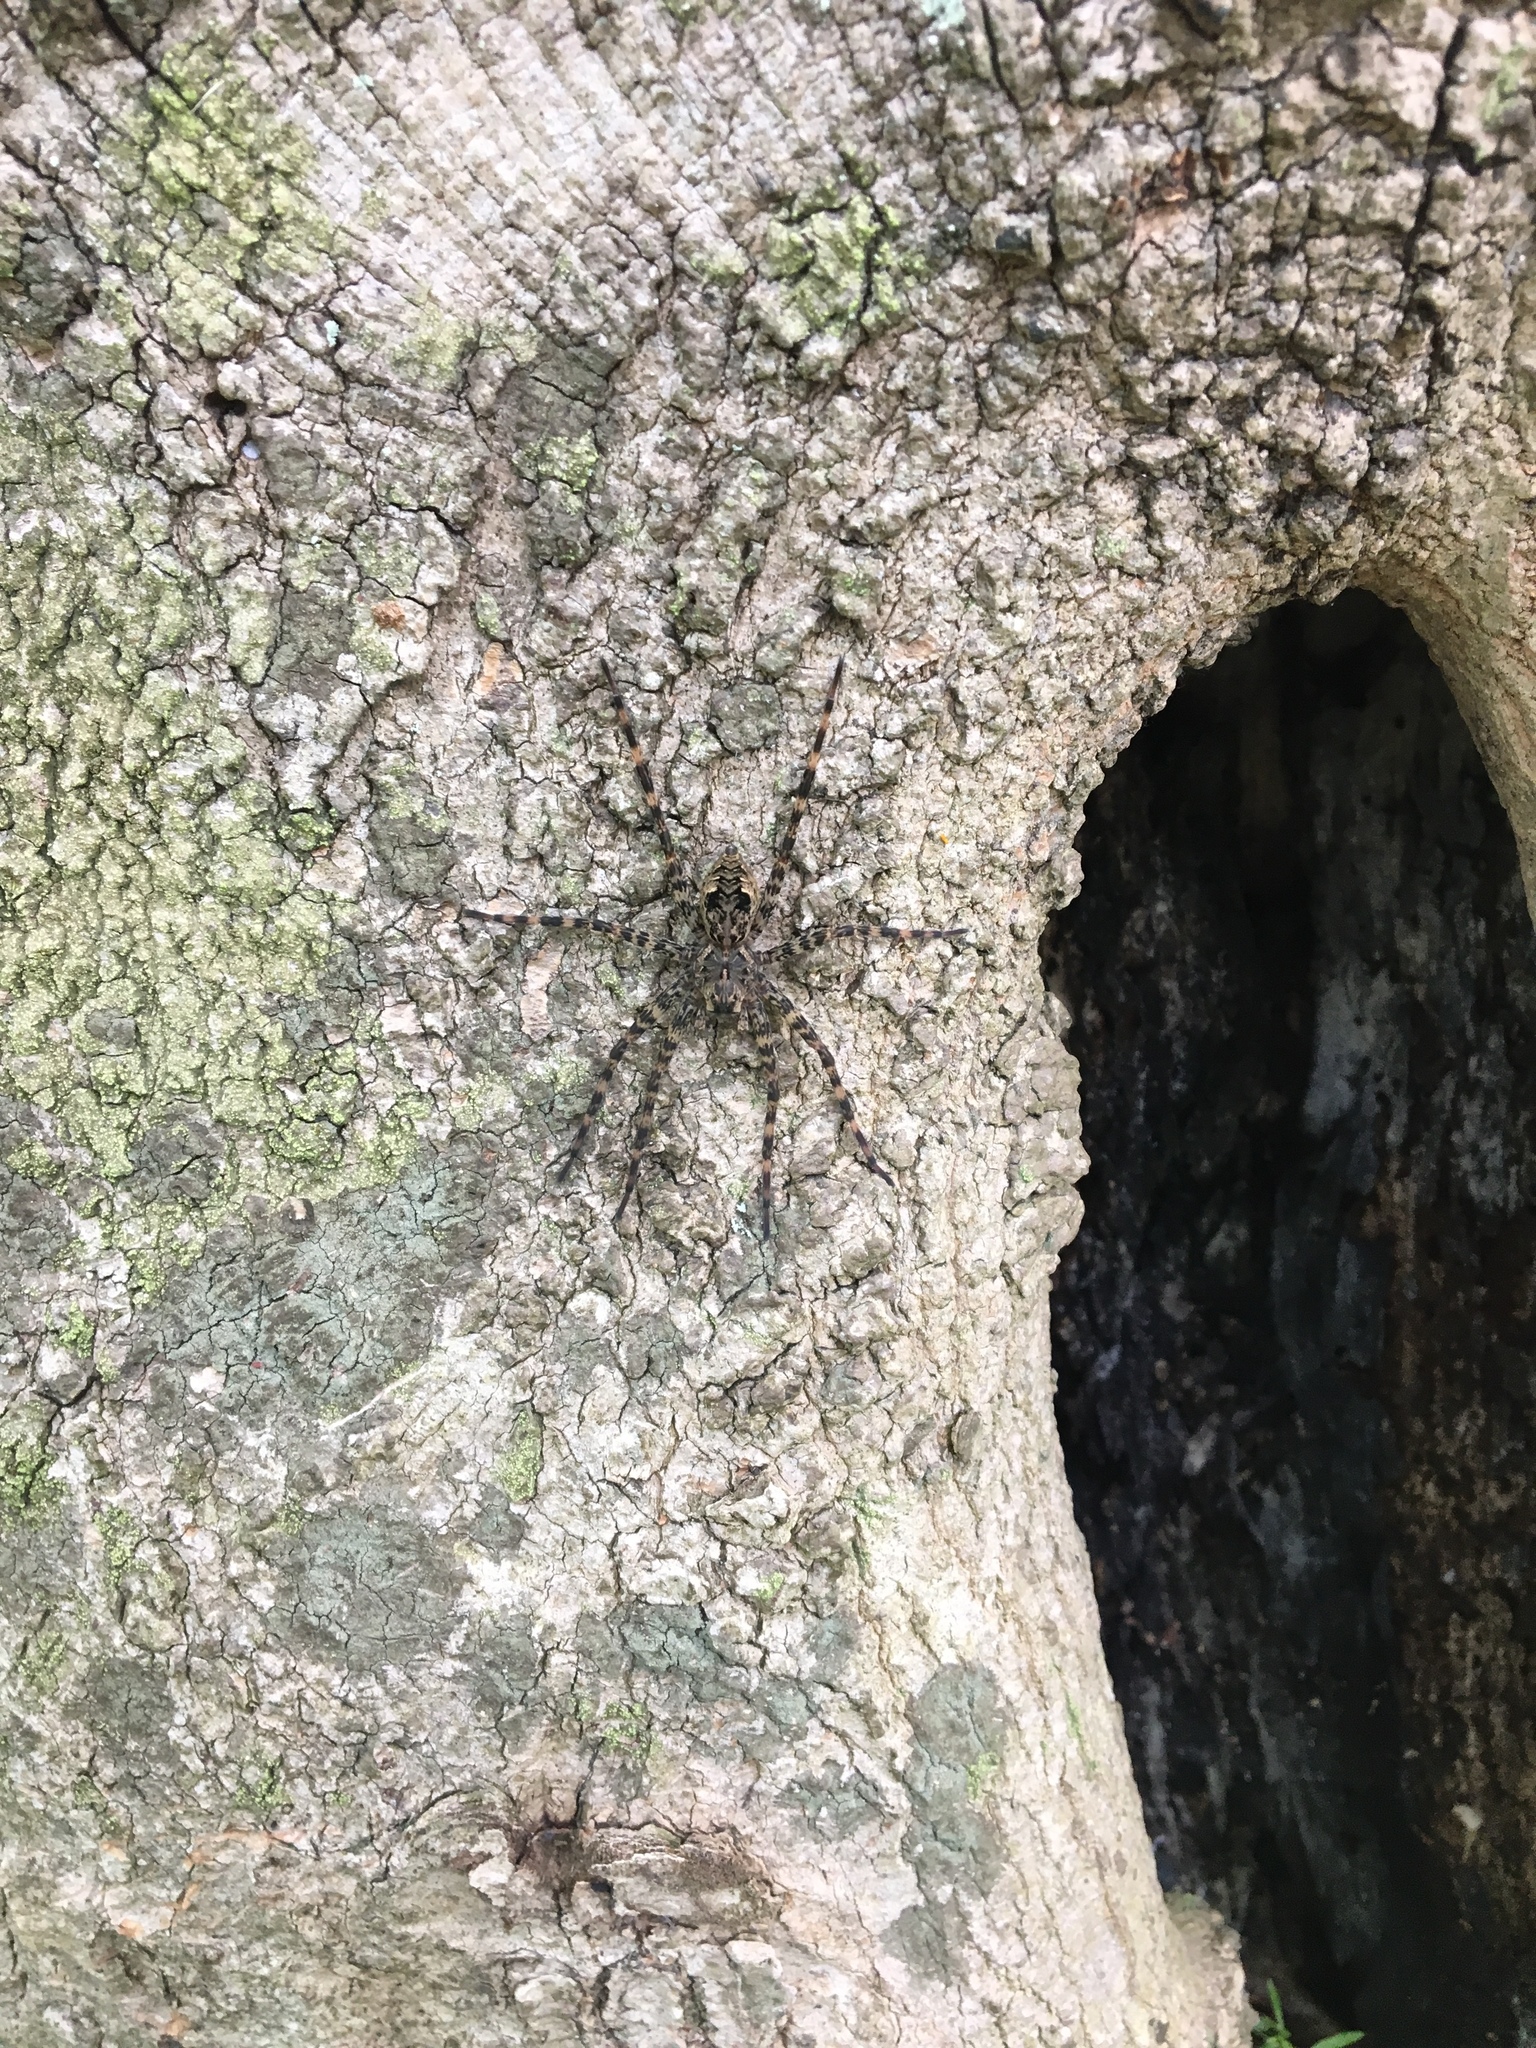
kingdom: Animalia
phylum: Arthropoda
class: Arachnida
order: Araneae
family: Pisauridae
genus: Dolomedes
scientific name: Dolomedes tenebrosus
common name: Dark fishing spider
